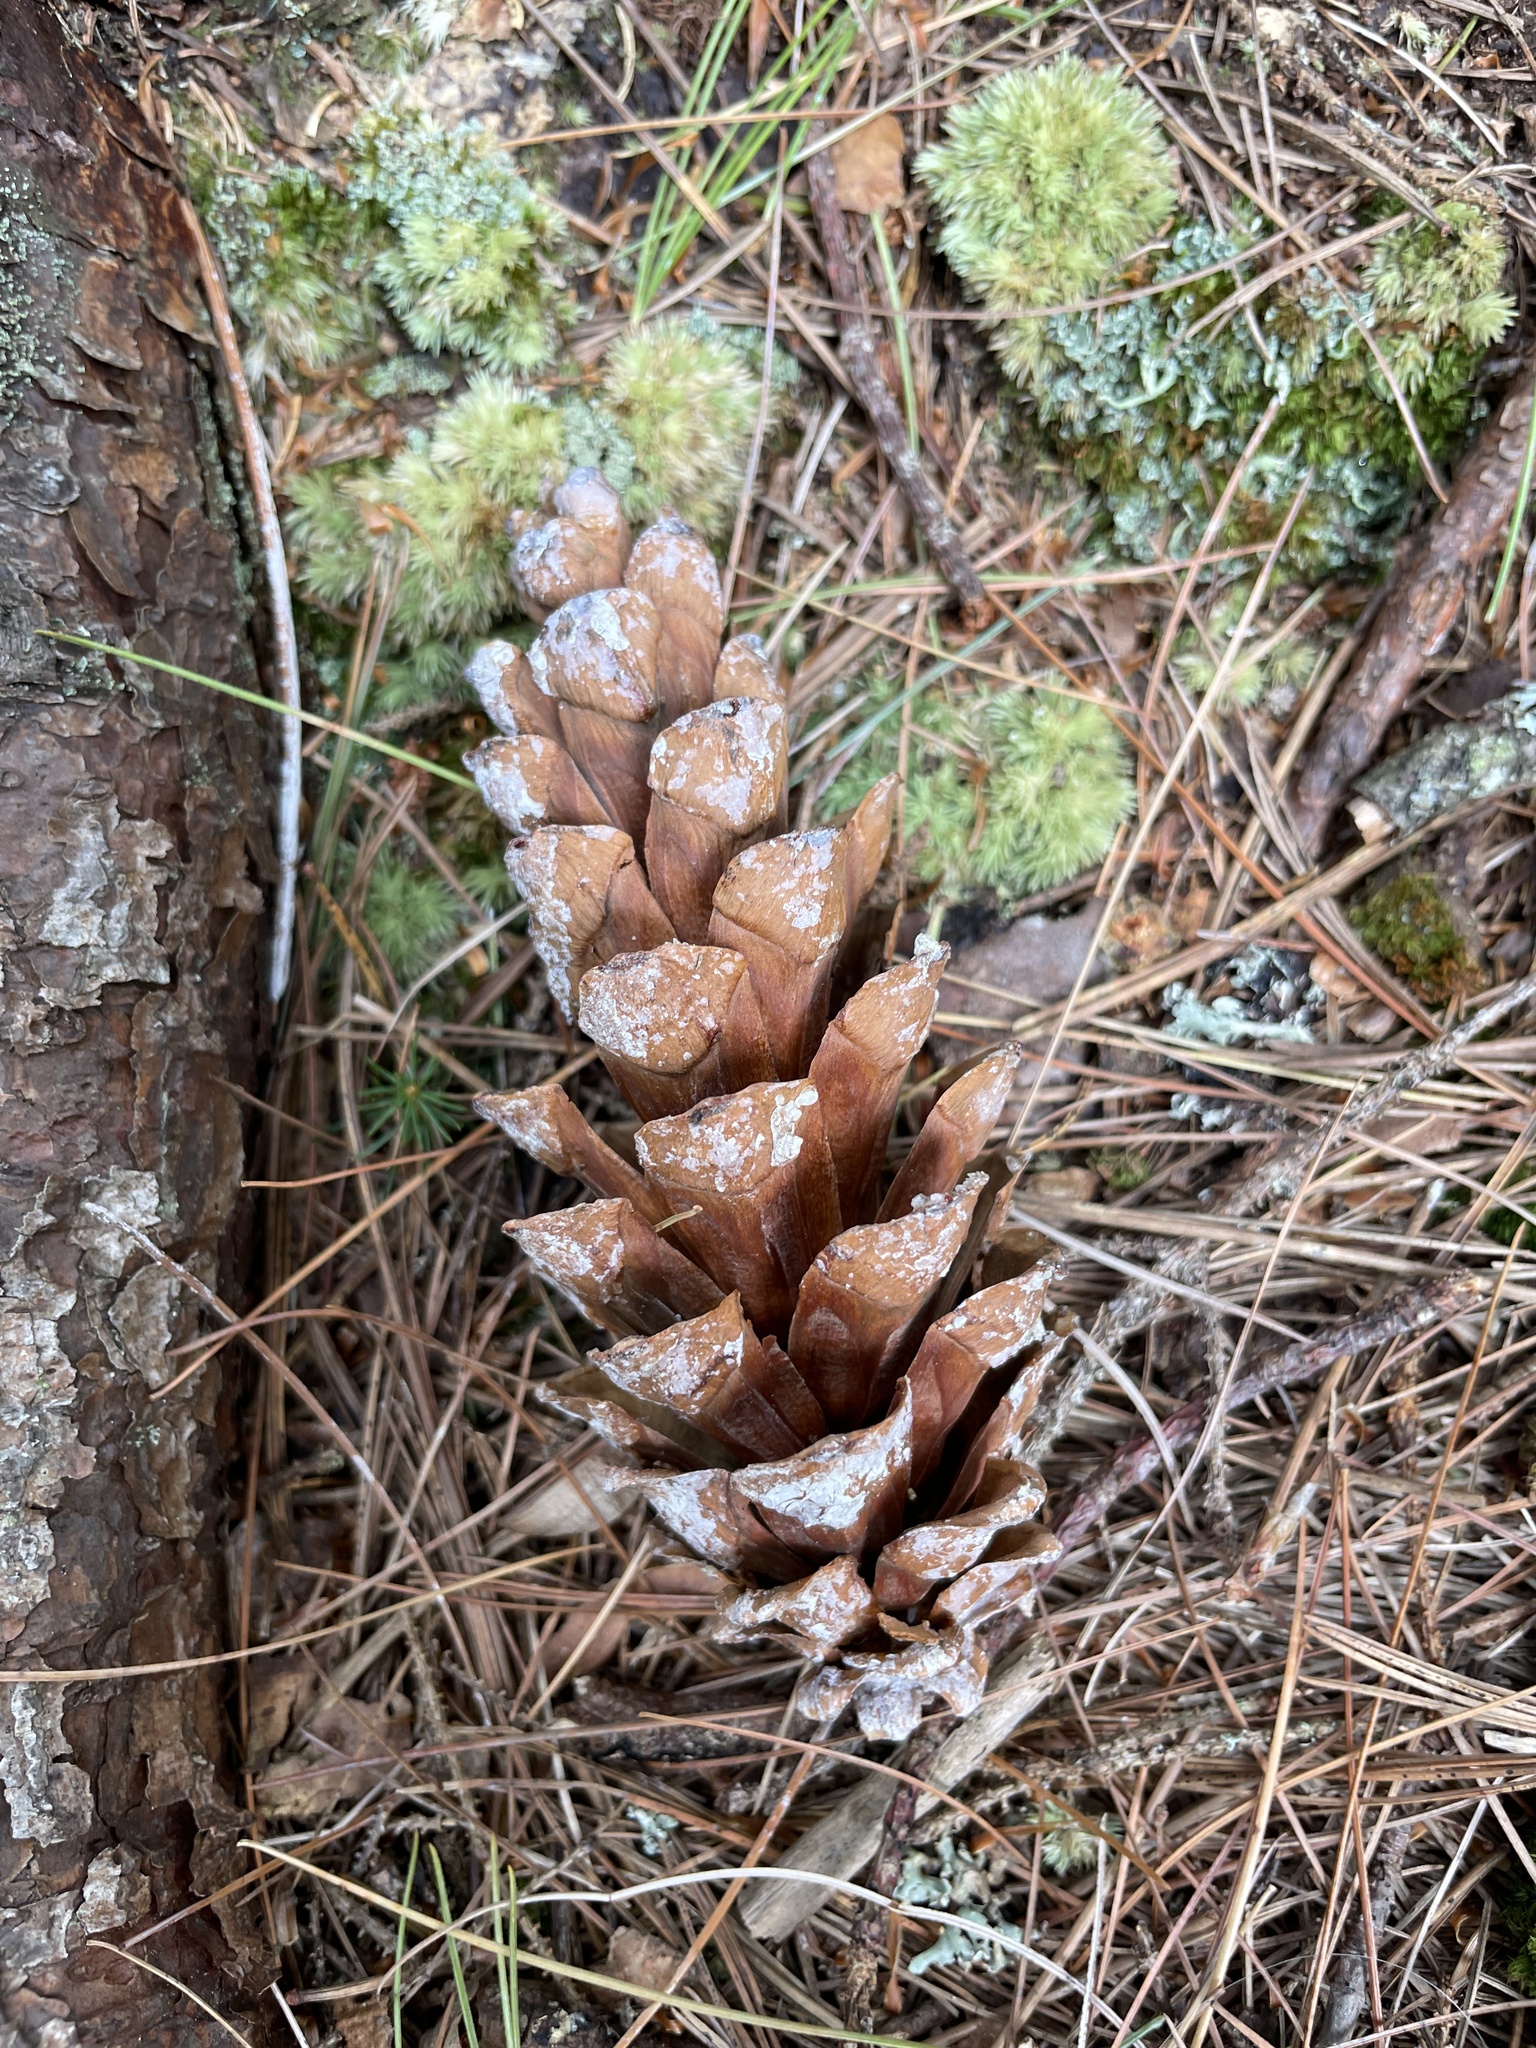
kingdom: Plantae
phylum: Tracheophyta
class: Pinopsida
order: Pinales
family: Pinaceae
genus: Pinus
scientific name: Pinus strobus
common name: Weymouth pine
